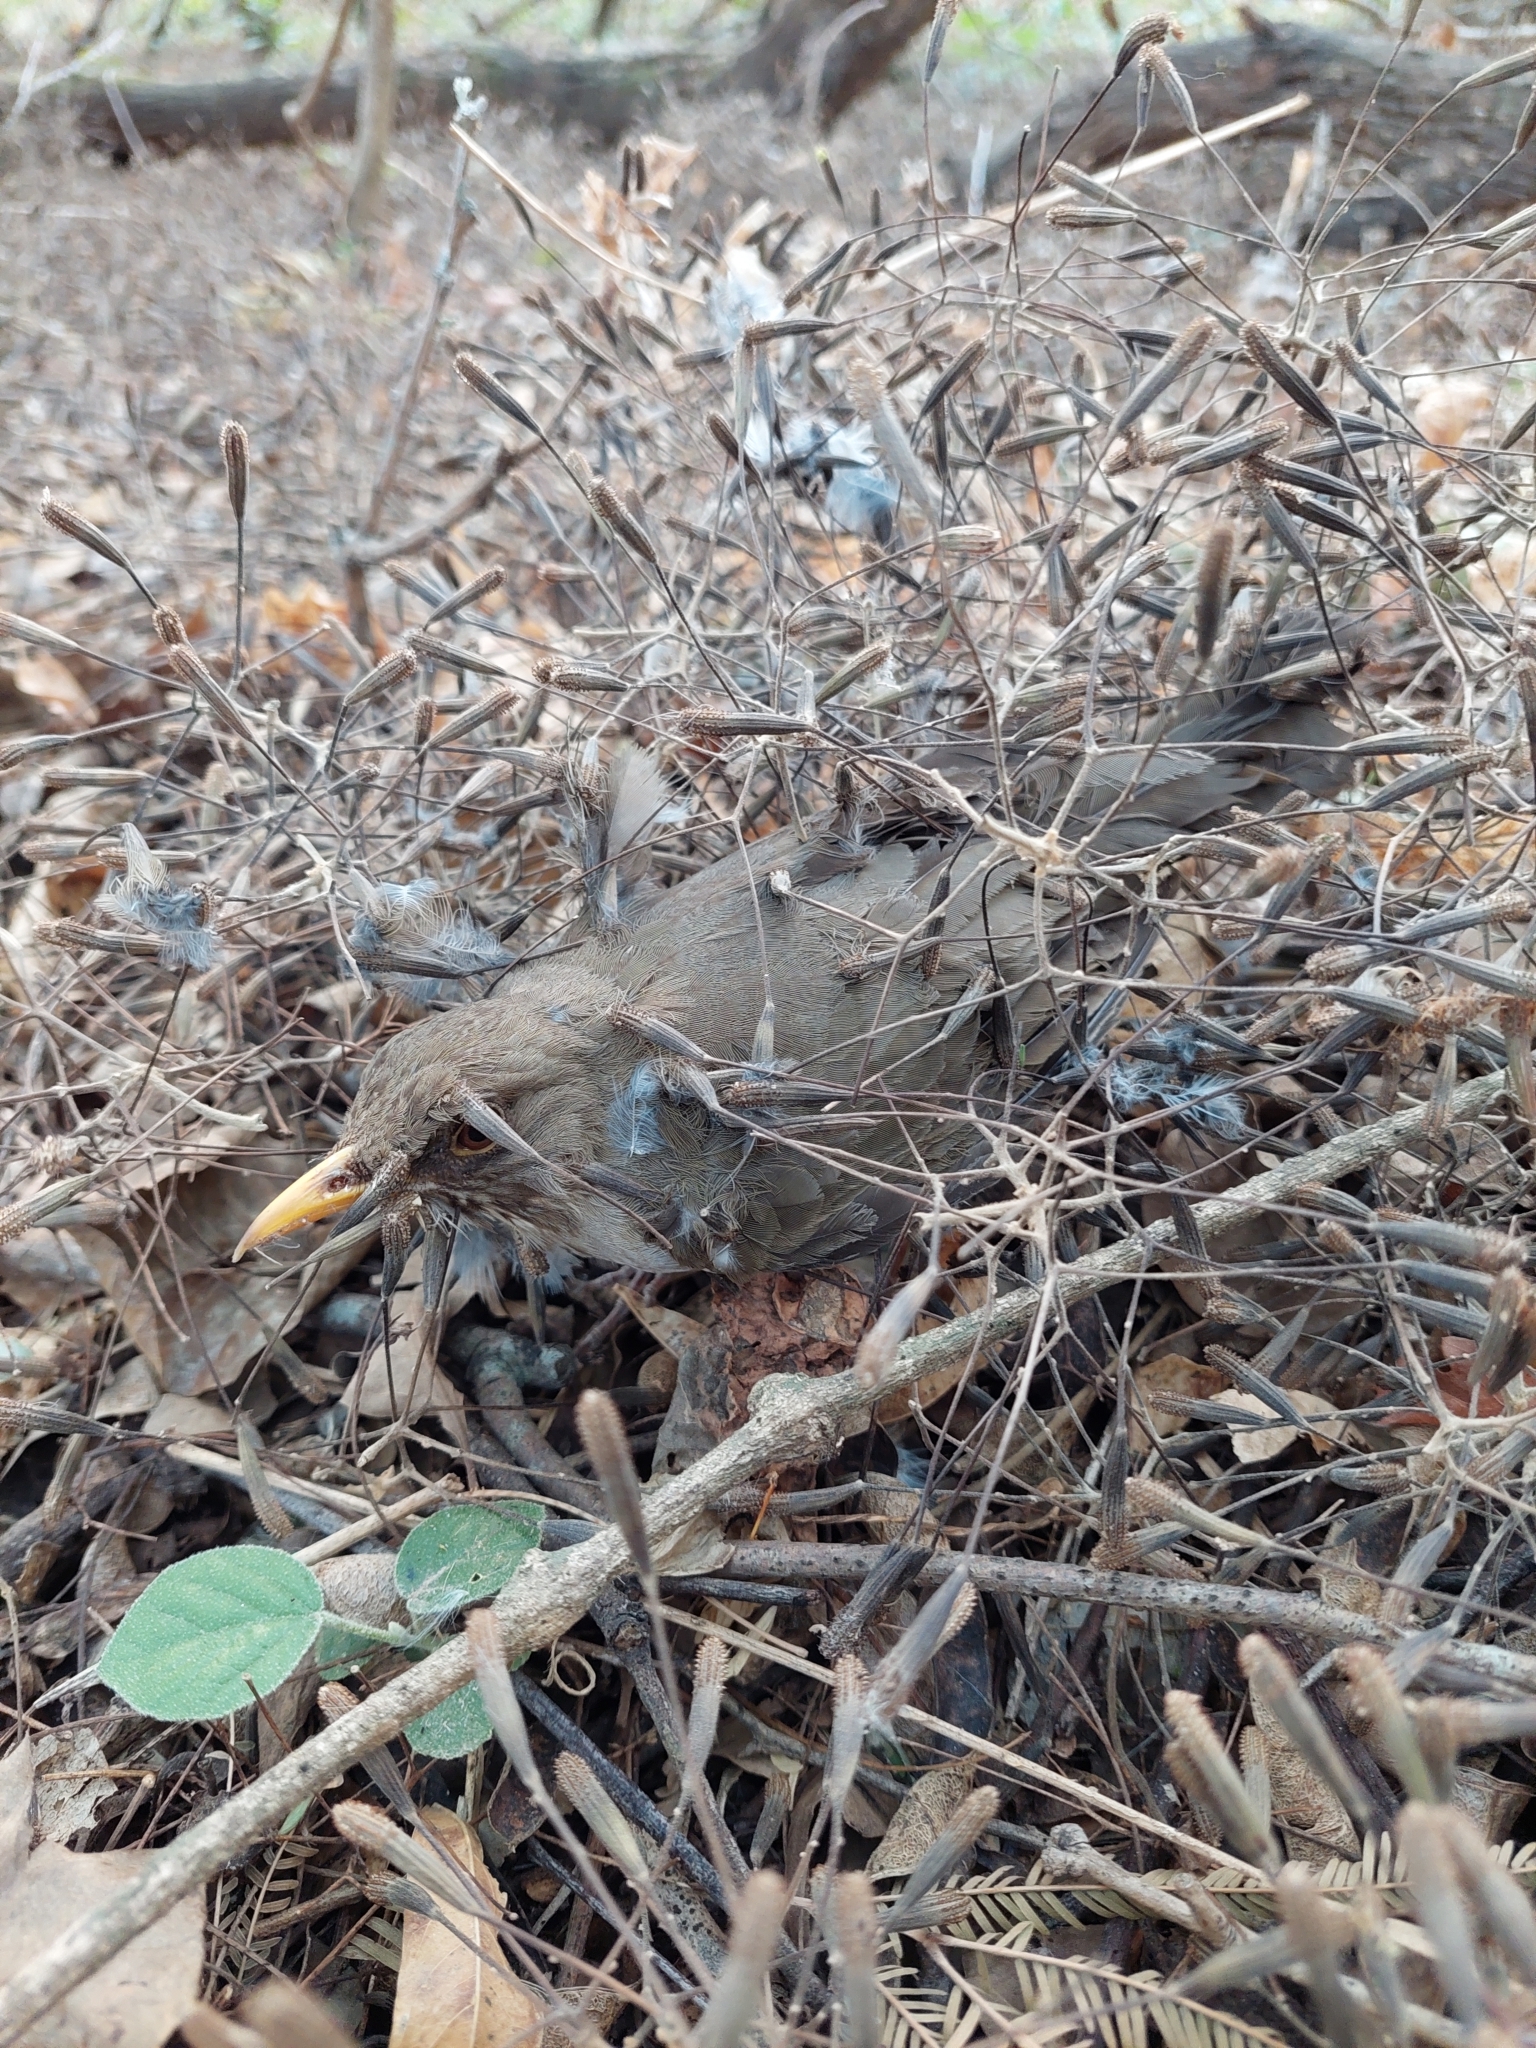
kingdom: Animalia
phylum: Chordata
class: Aves
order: Passeriformes
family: Turdidae
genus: Turdus
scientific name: Turdus amaurochalinus
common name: Creamy-bellied thrush
